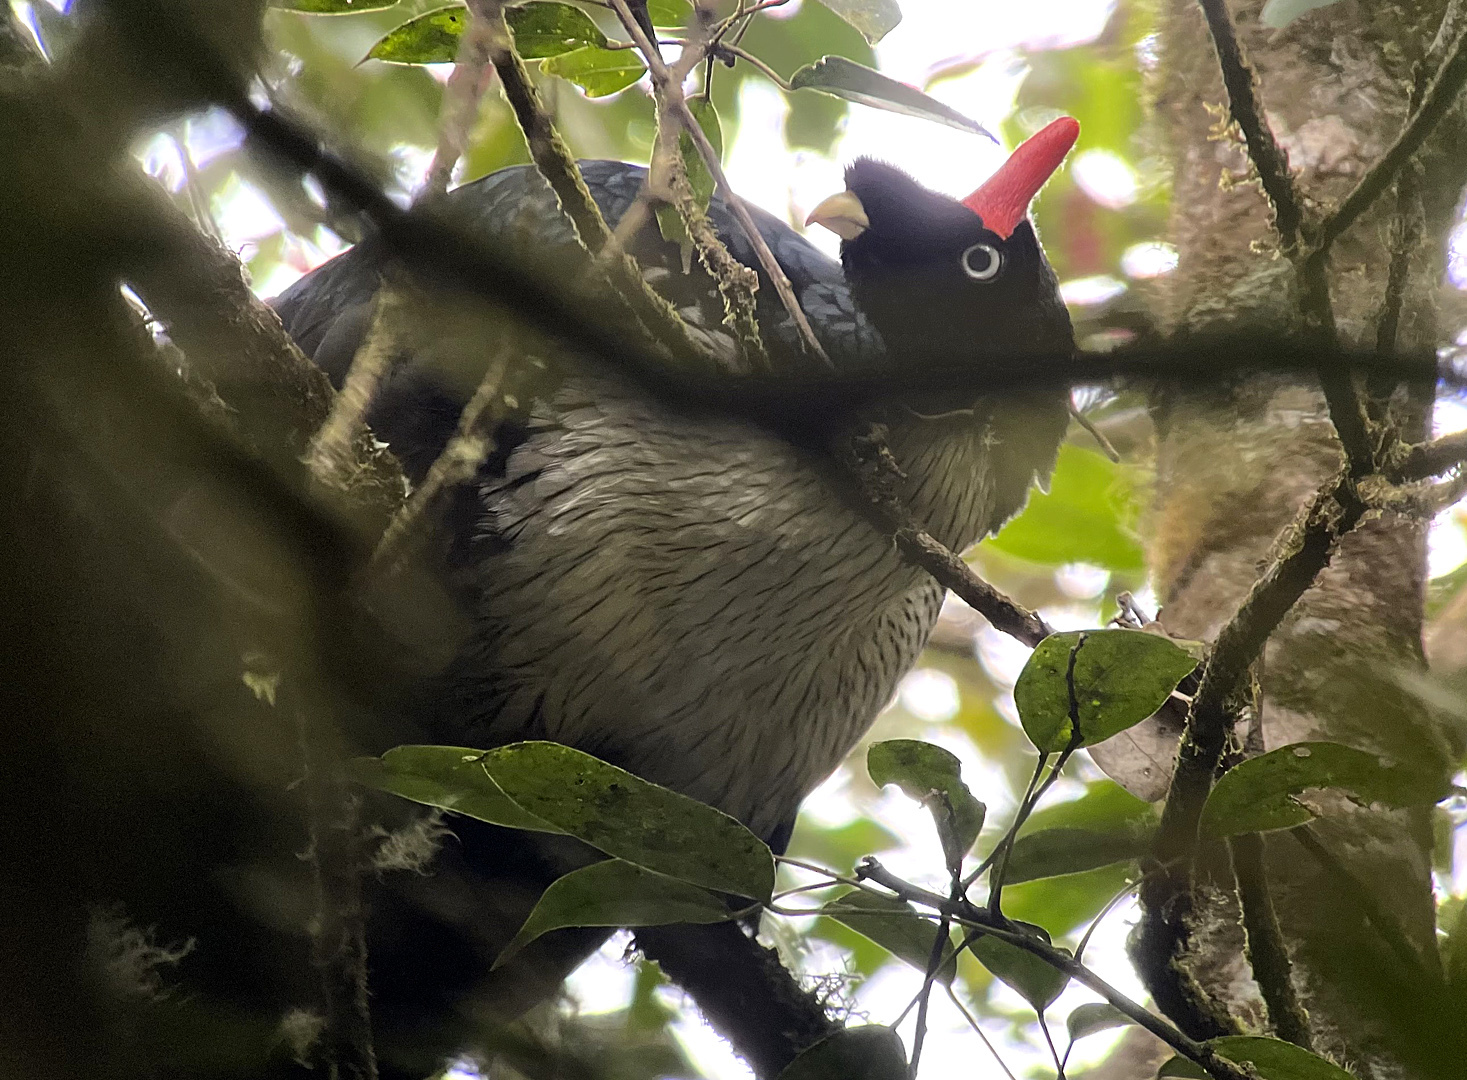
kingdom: Animalia
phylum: Chordata
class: Aves
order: Galliformes
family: Cracidae
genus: Oreophasis
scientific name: Oreophasis derbianus
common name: Horned guan
